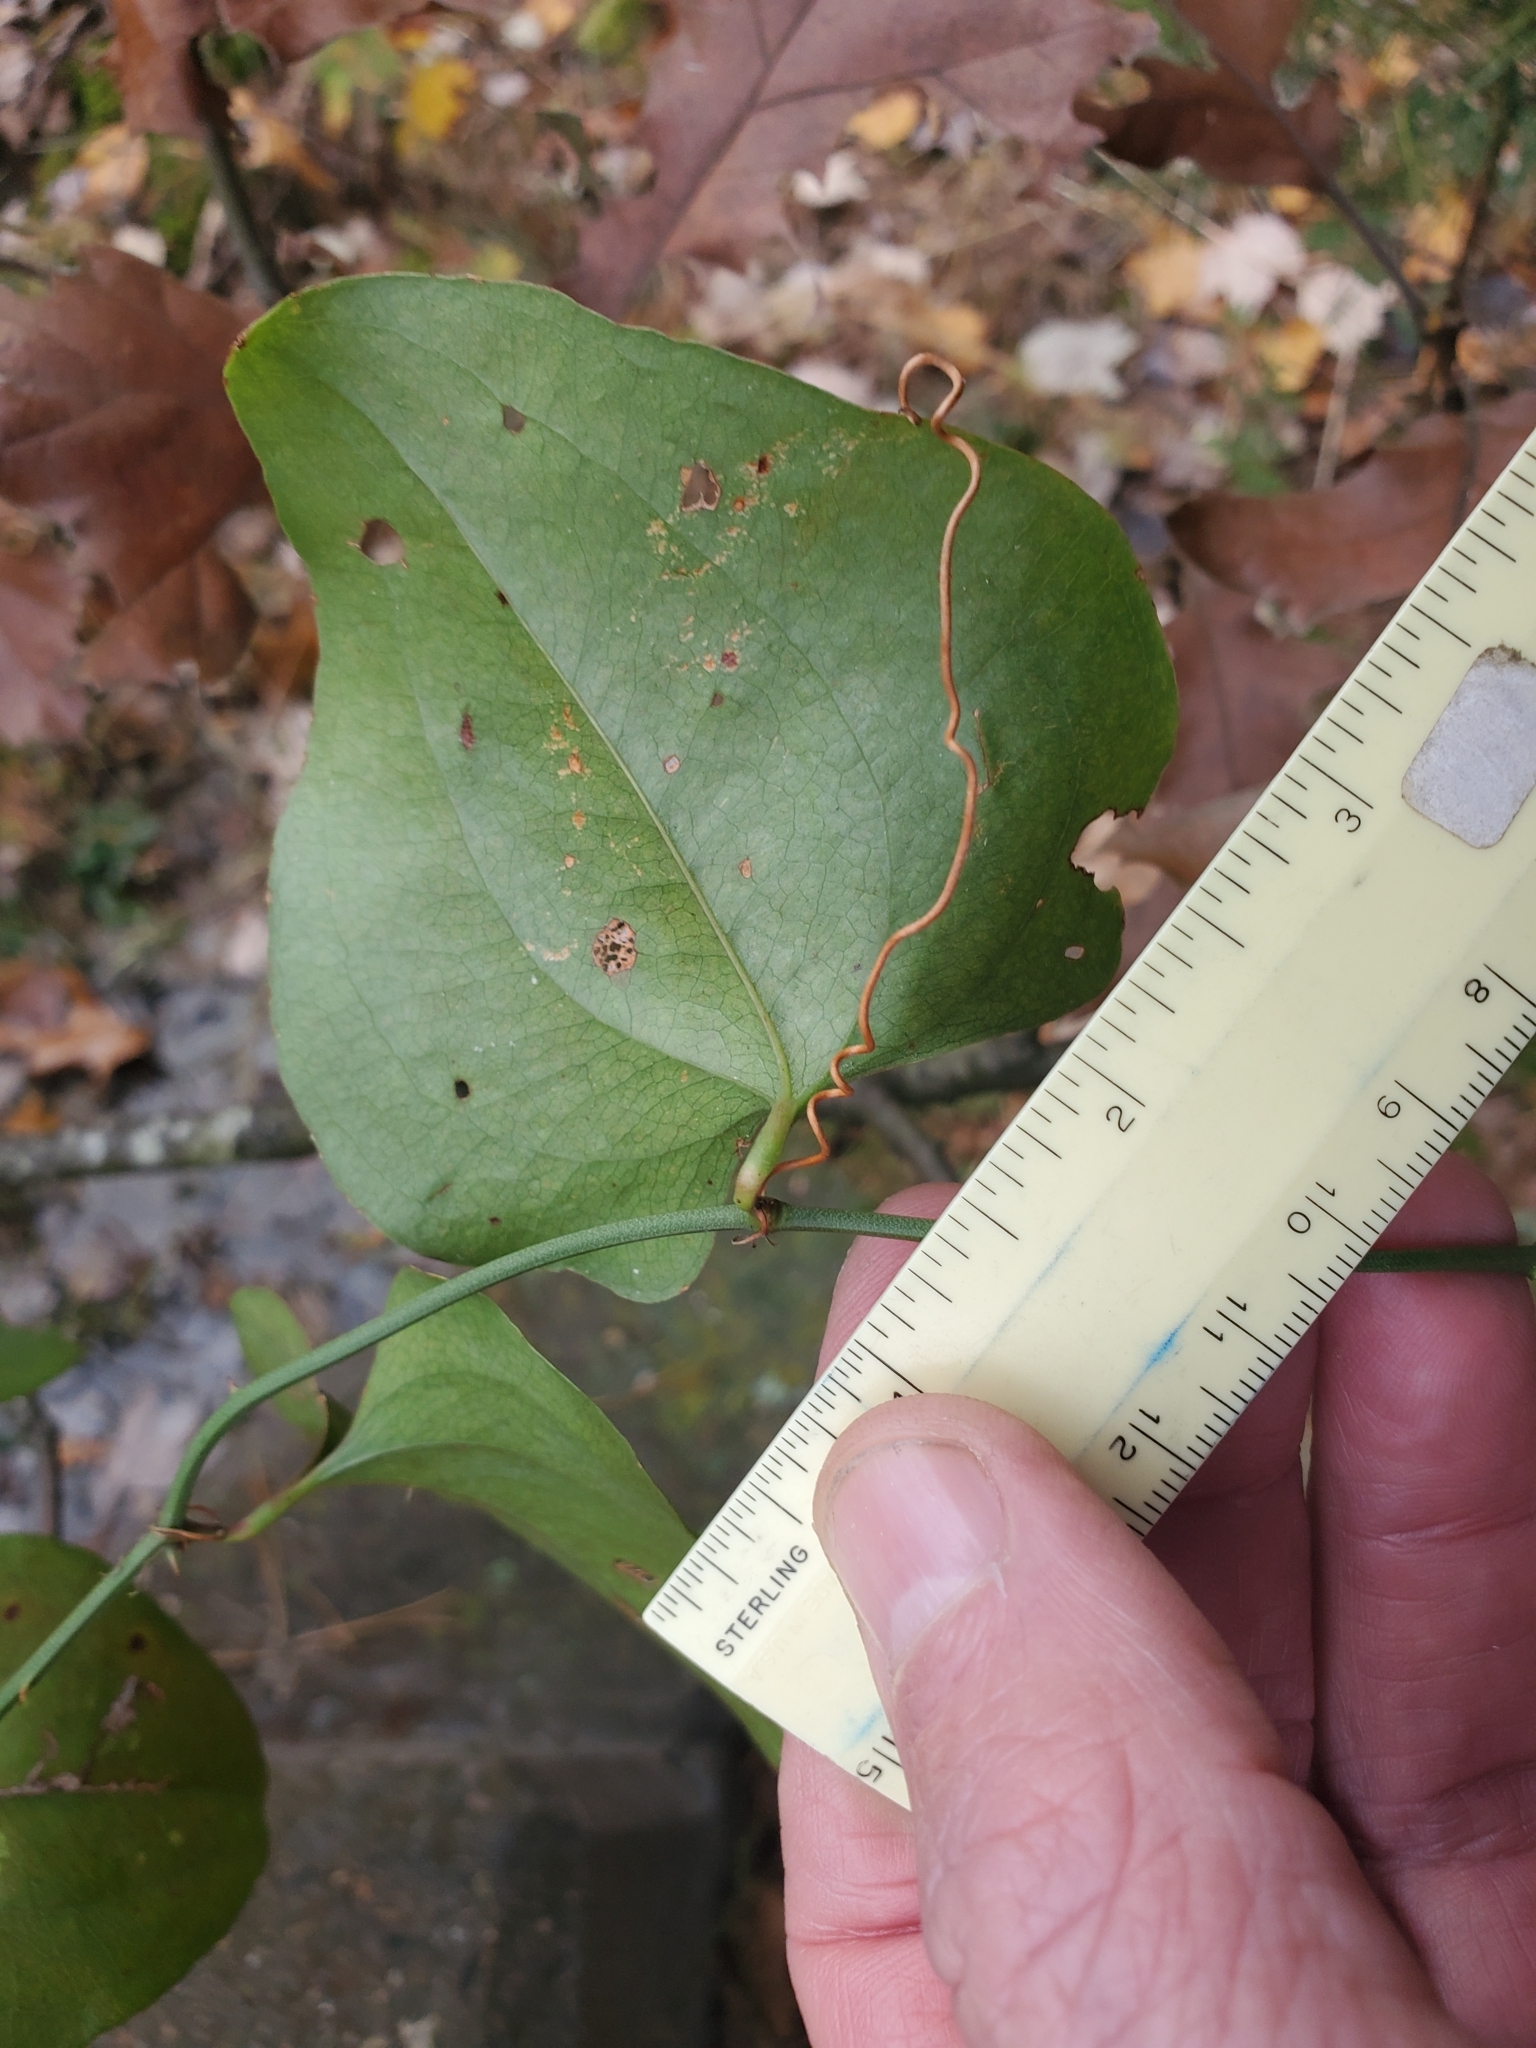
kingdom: Plantae
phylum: Tracheophyta
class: Liliopsida
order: Liliales
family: Smilacaceae
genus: Smilax
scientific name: Smilax bona-nox
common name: Catbrier
